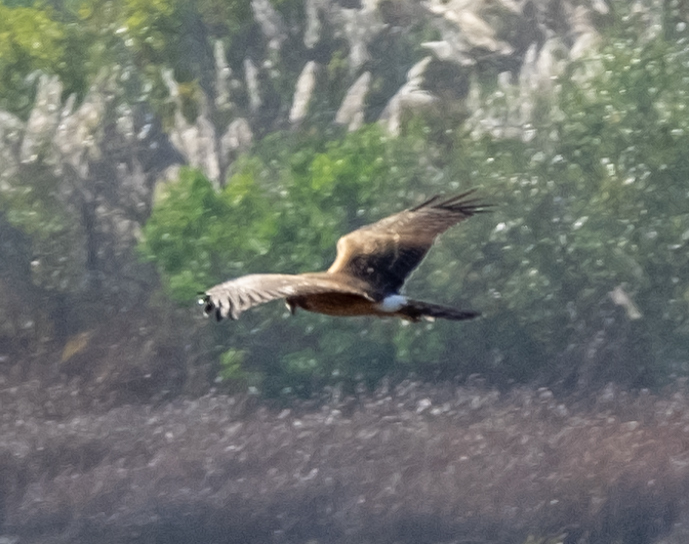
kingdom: Animalia
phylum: Chordata
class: Aves
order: Accipitriformes
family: Accipitridae
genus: Circus
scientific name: Circus cyaneus
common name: Hen harrier
